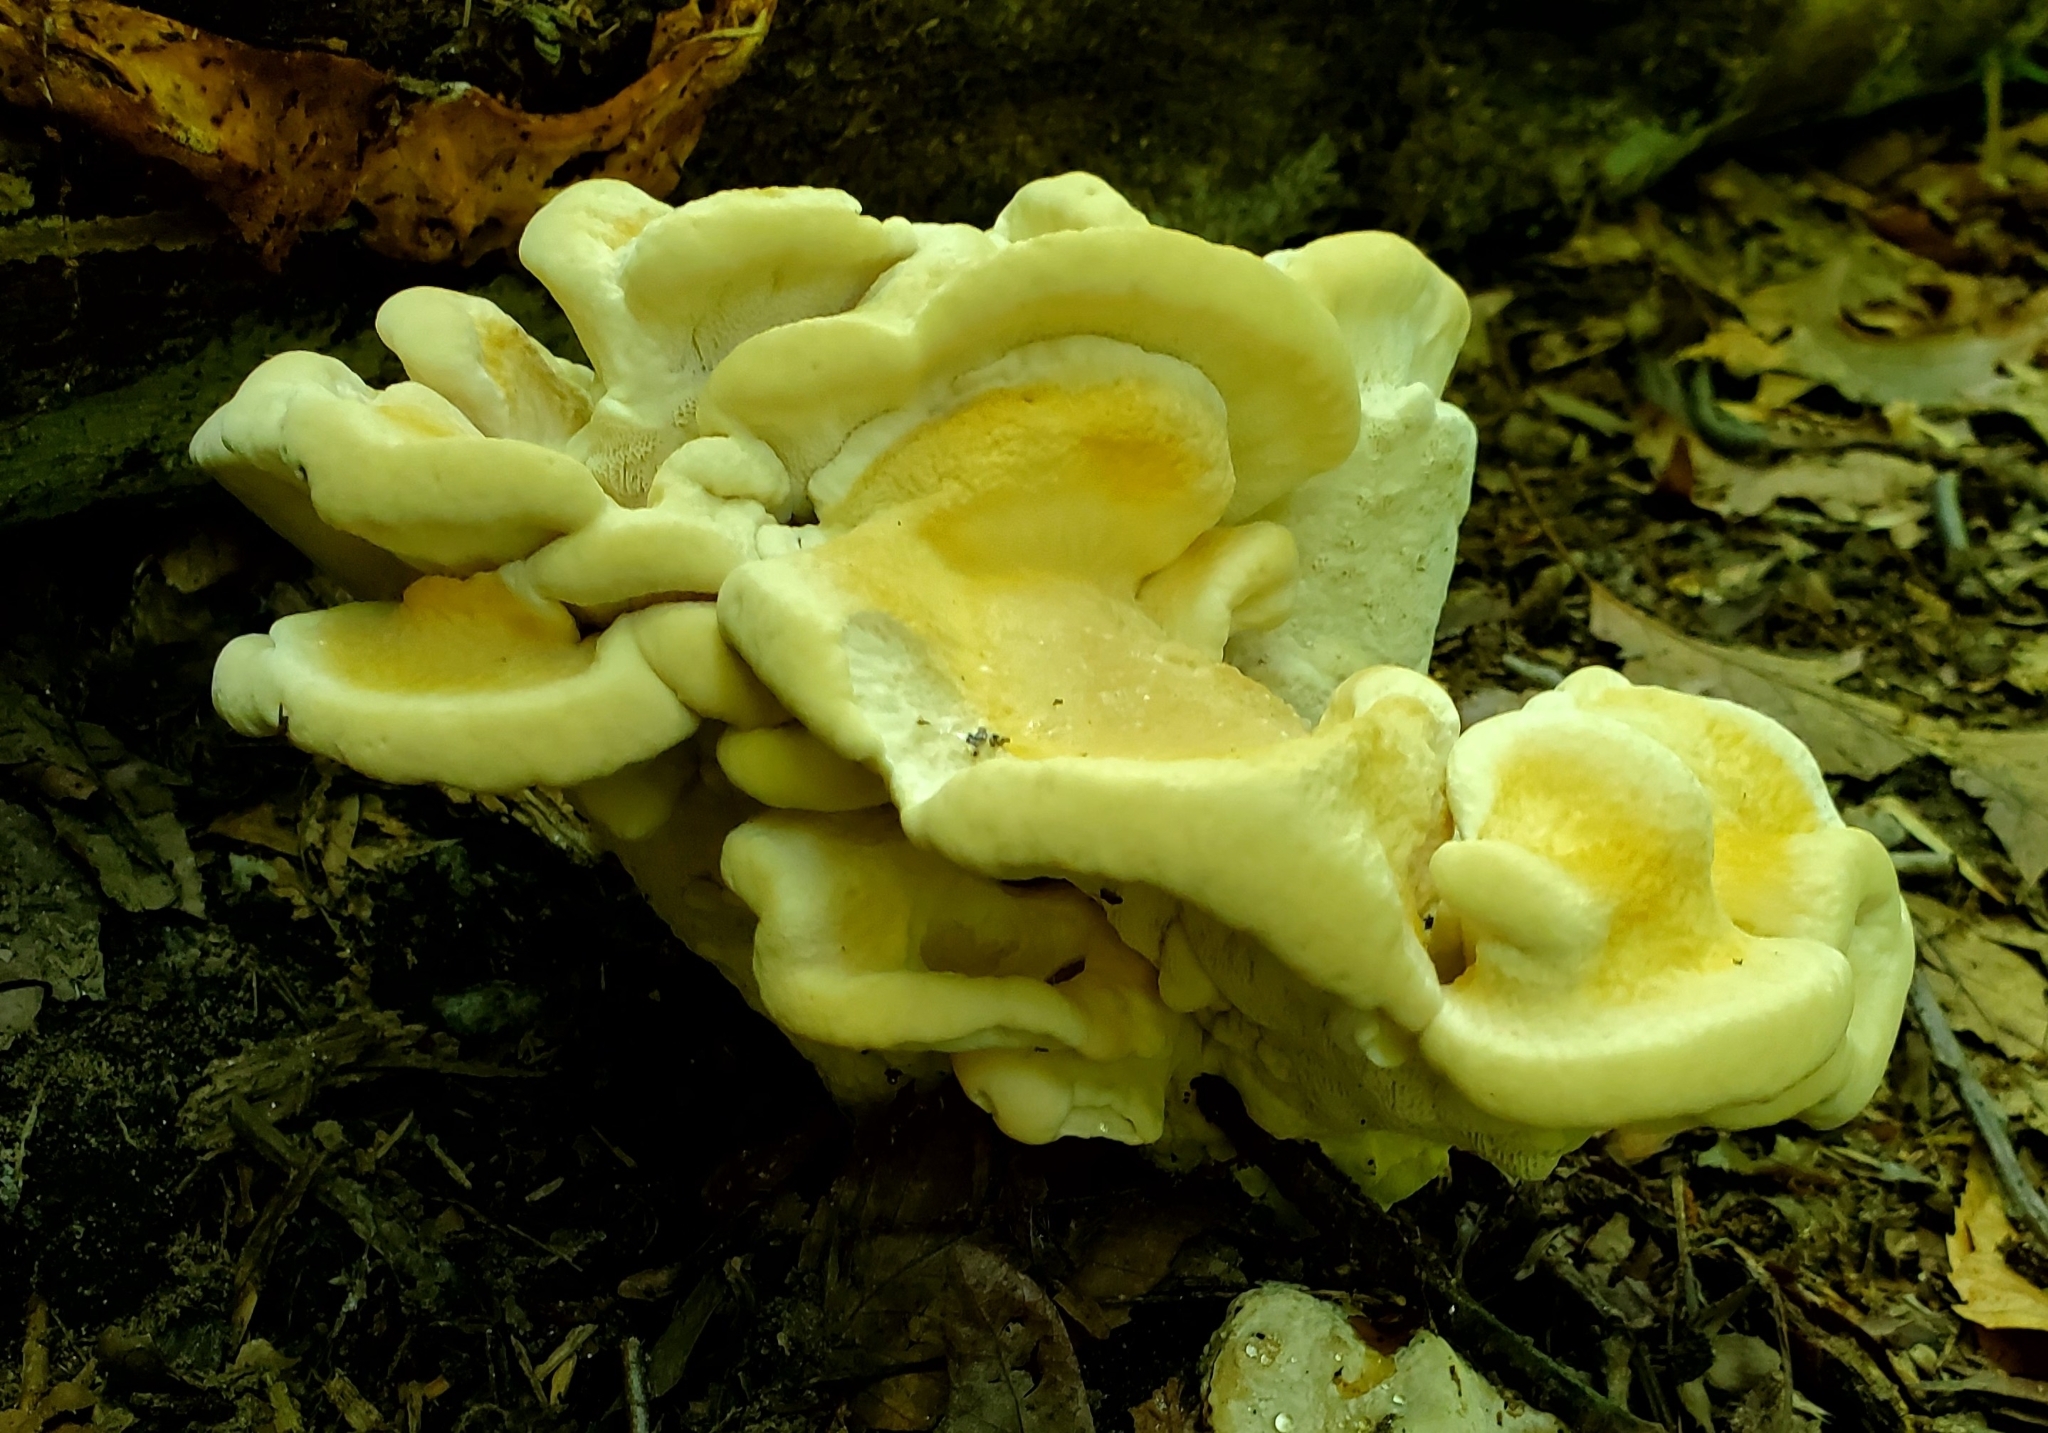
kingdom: Fungi
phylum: Basidiomycota
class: Agaricomycetes
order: Russulales
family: Bondarzewiaceae
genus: Bondarzewia
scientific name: Bondarzewia berkeleyi
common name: Berkeley's polypore
